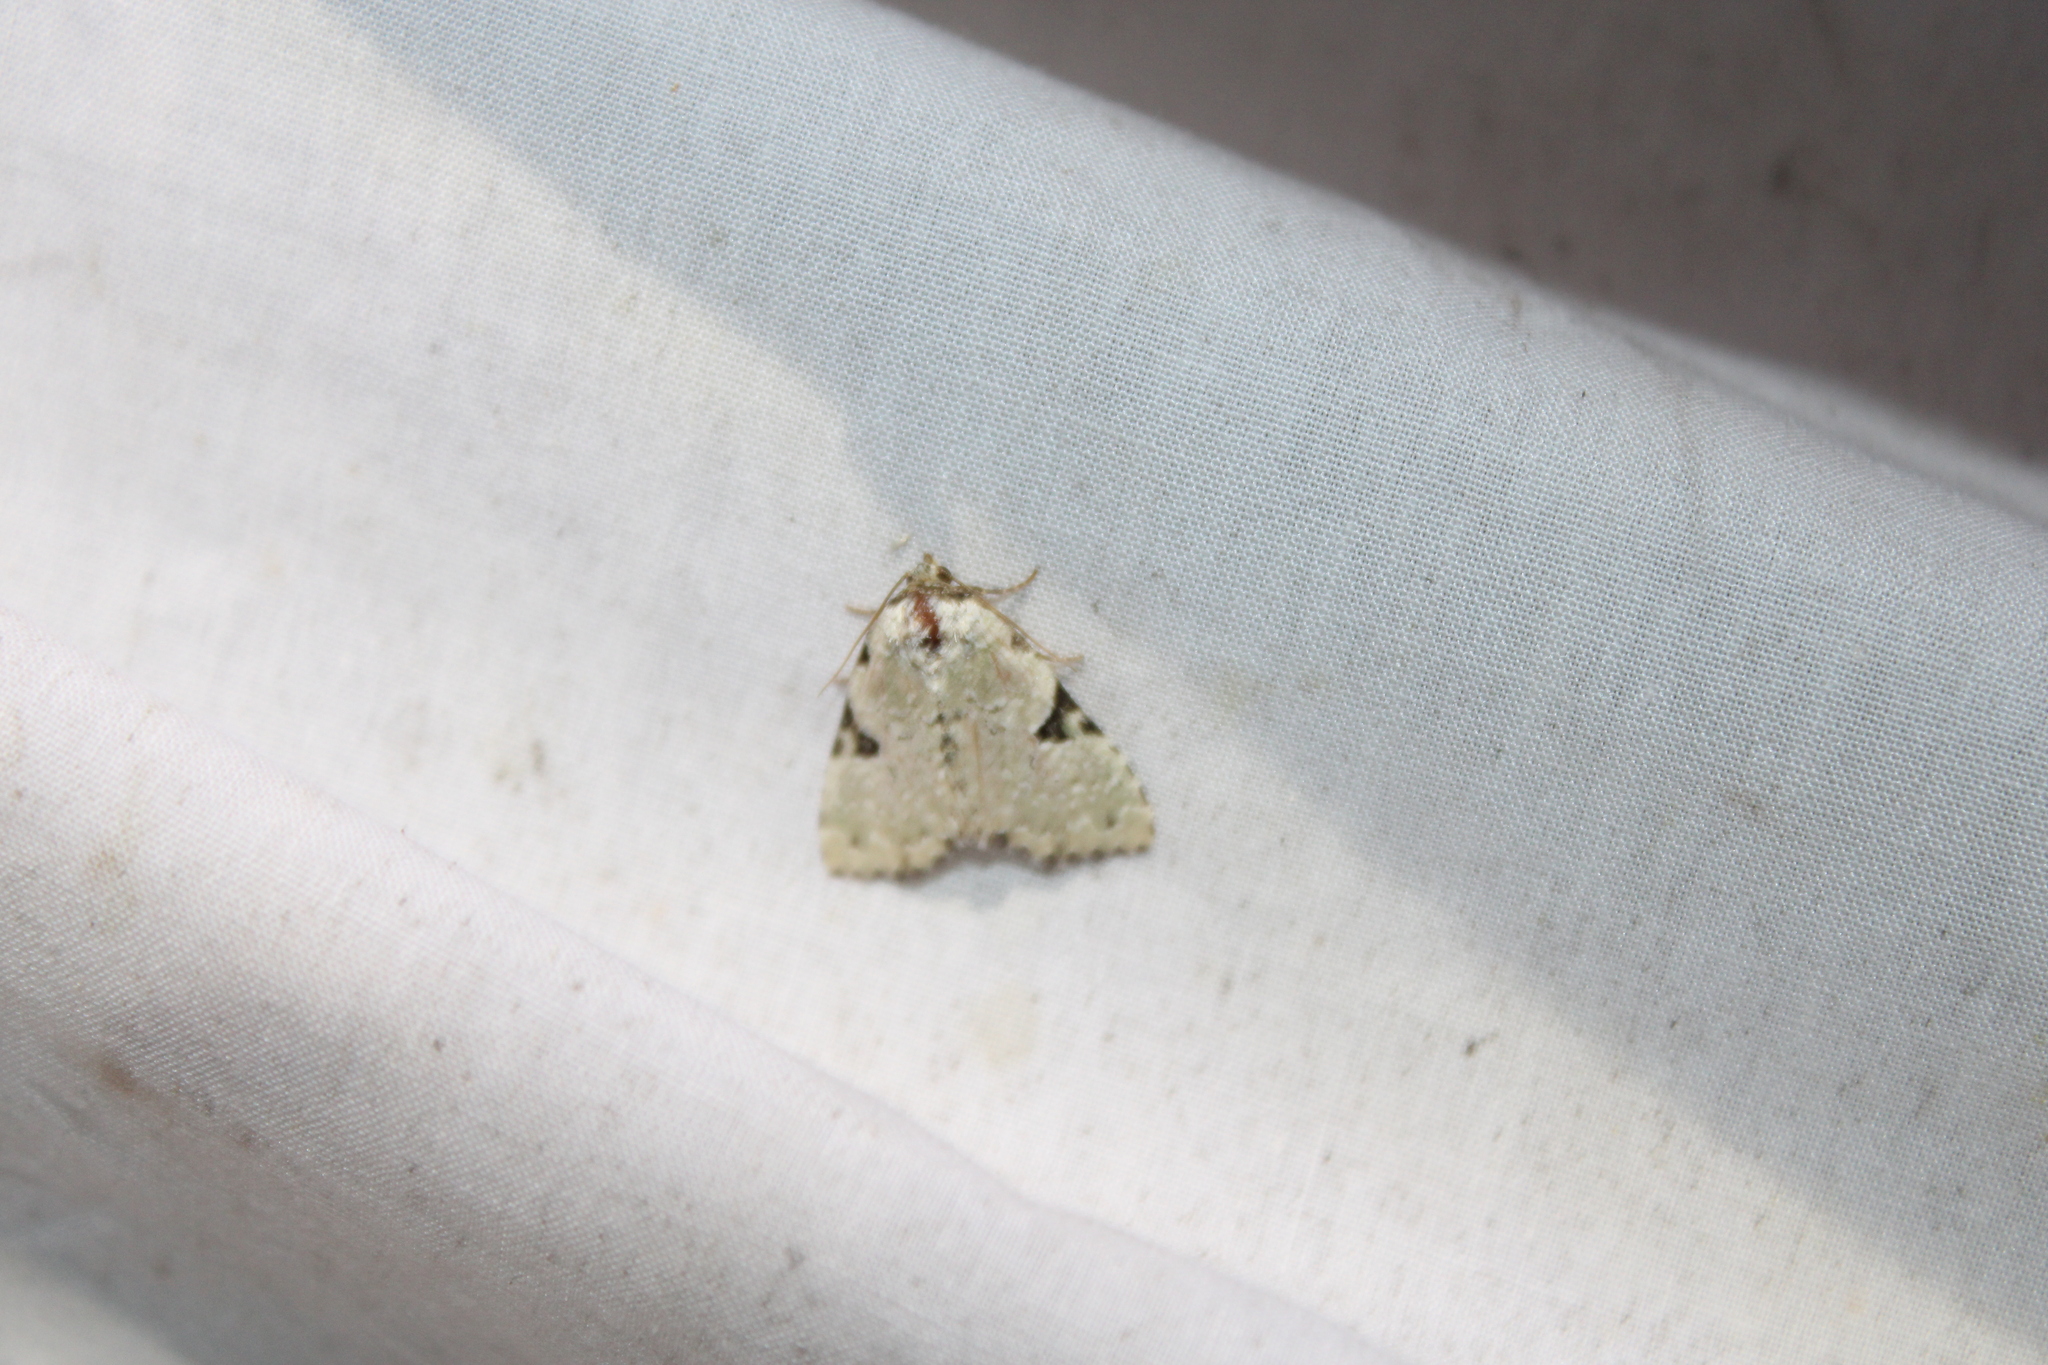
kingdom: Animalia
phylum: Arthropoda
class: Insecta
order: Lepidoptera
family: Noctuidae
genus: Leuconycta
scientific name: Leuconycta diphteroides
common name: Green leuconycta moth
